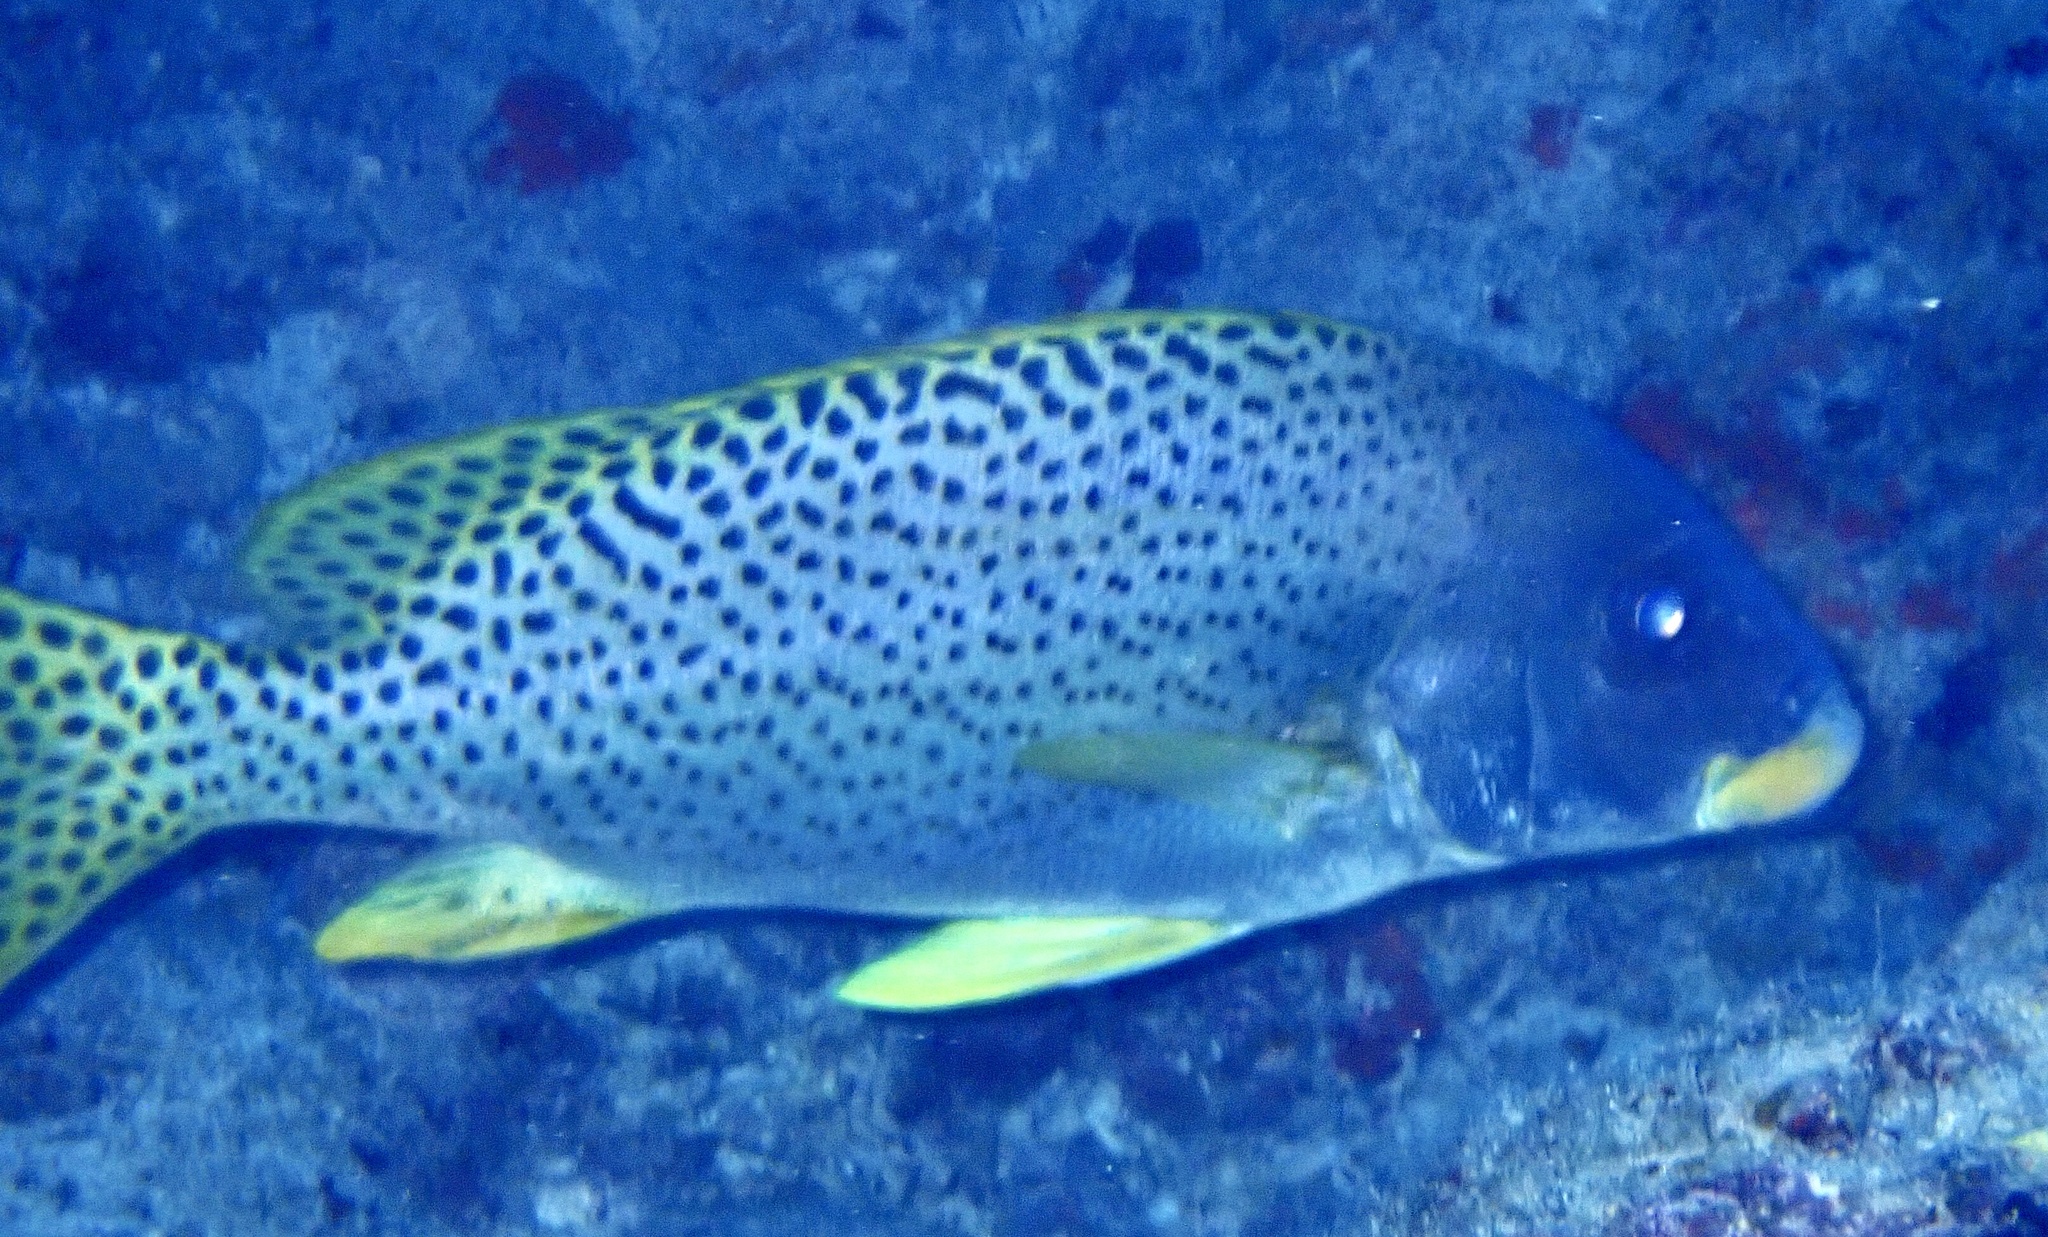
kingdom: Animalia
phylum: Chordata
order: Perciformes
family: Haemulidae
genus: Plectorhinchus
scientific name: Plectorhinchus gaterinus
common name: Blackspotted rubberlip
